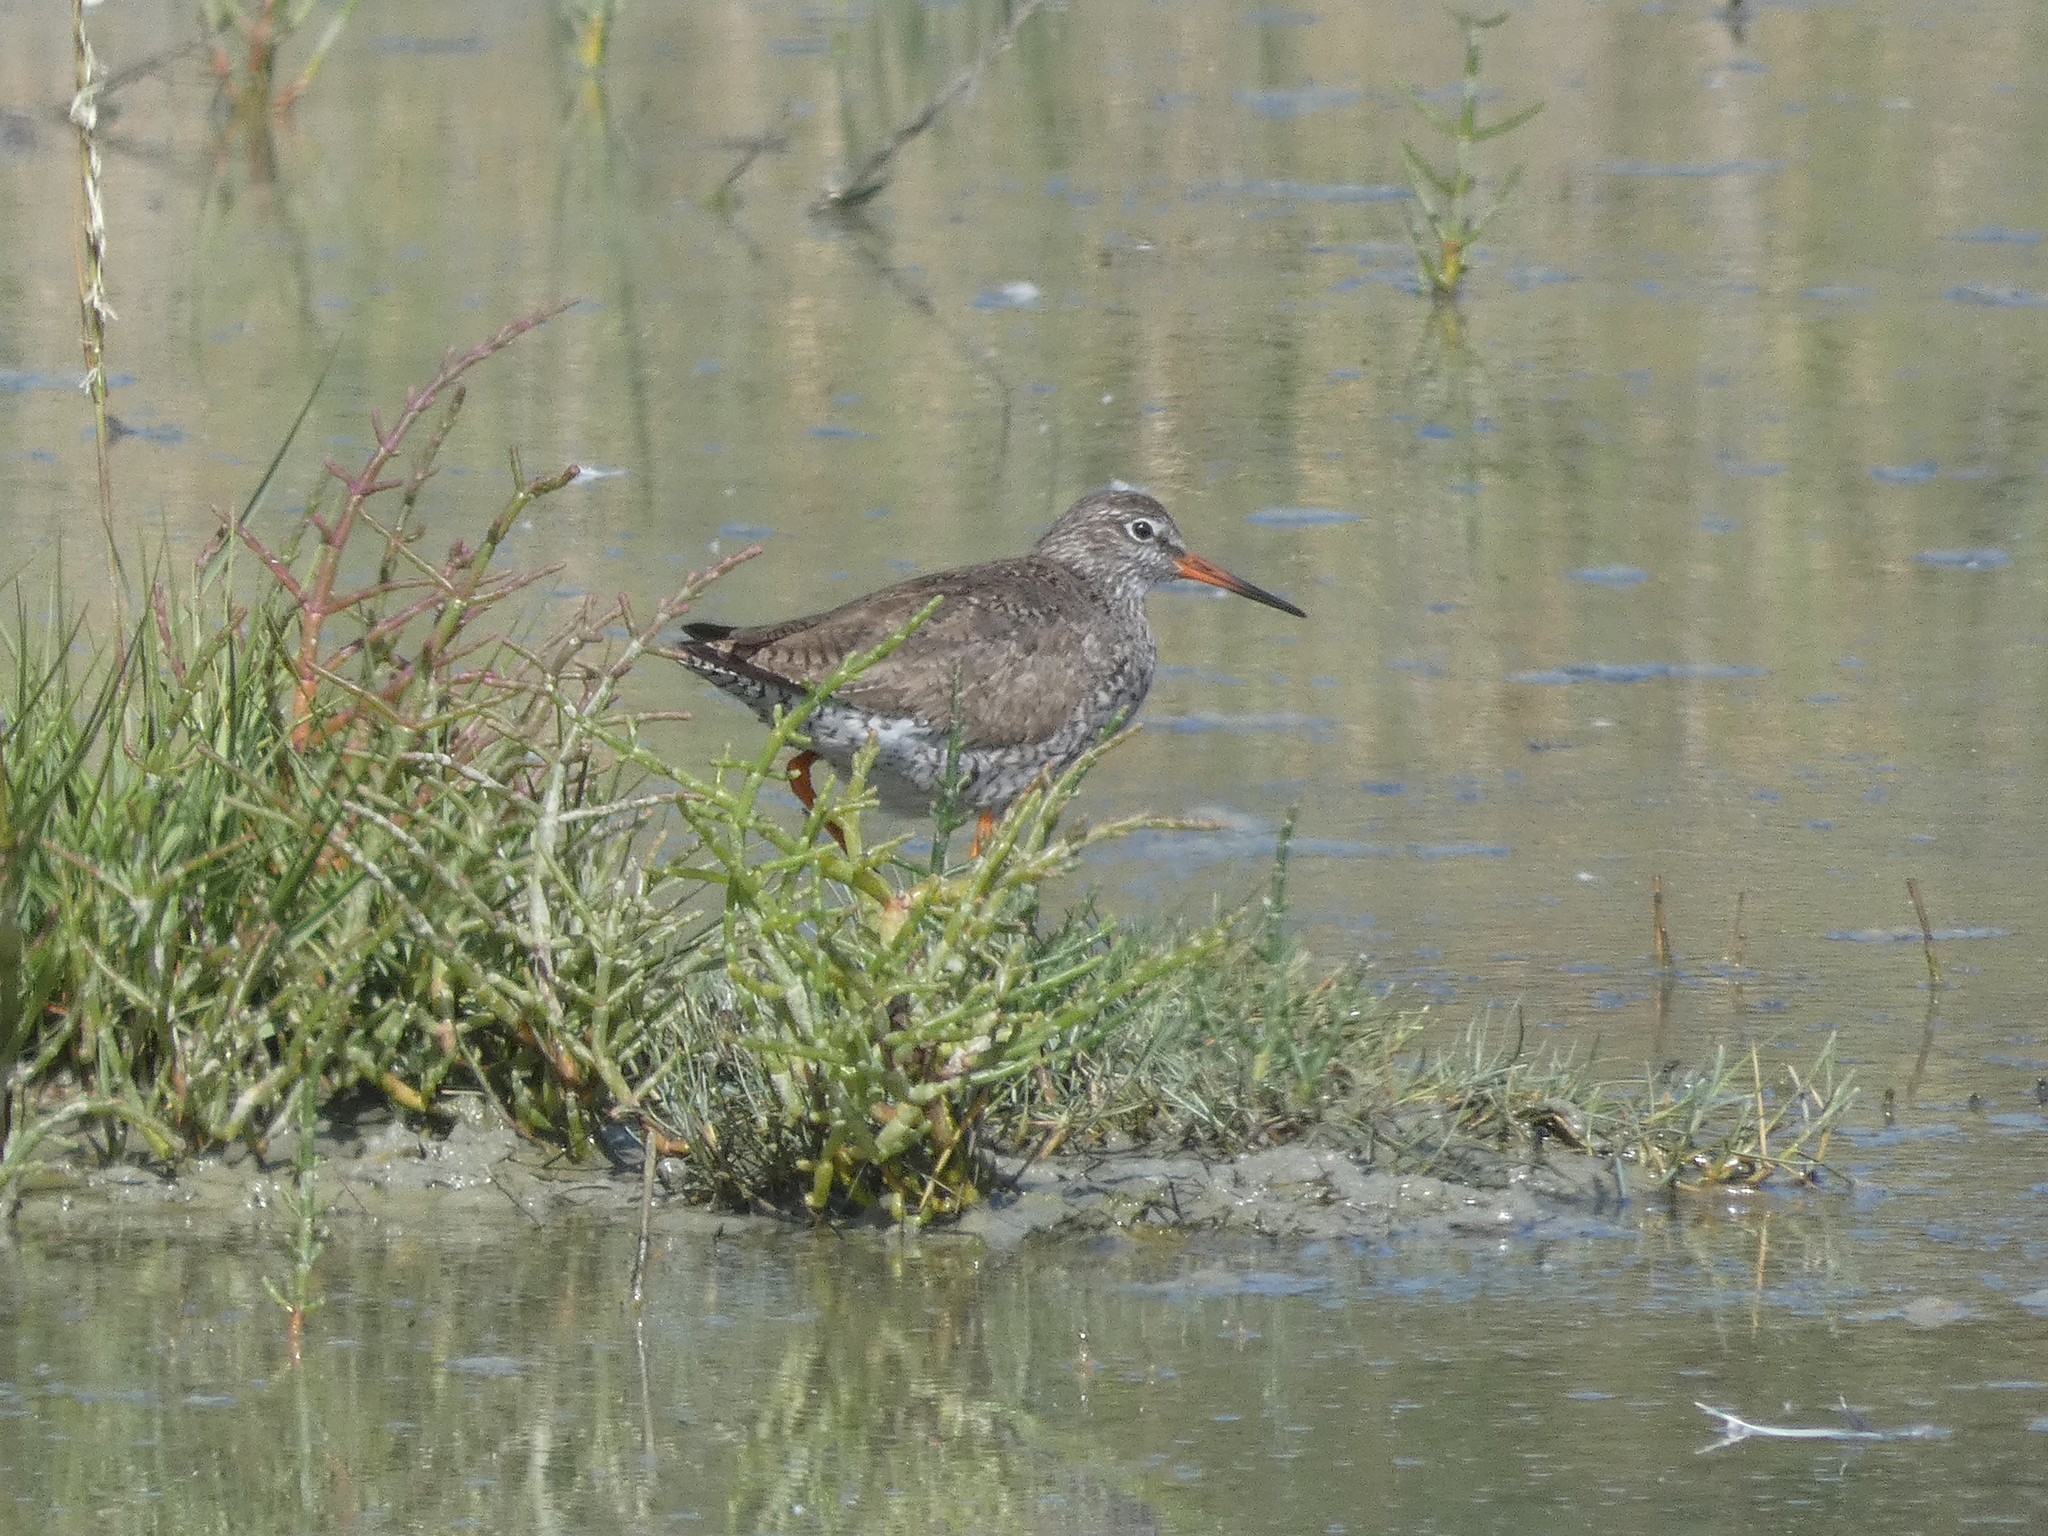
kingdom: Animalia
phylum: Chordata
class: Aves
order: Charadriiformes
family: Scolopacidae
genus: Tringa
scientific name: Tringa totanus
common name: Common redshank
